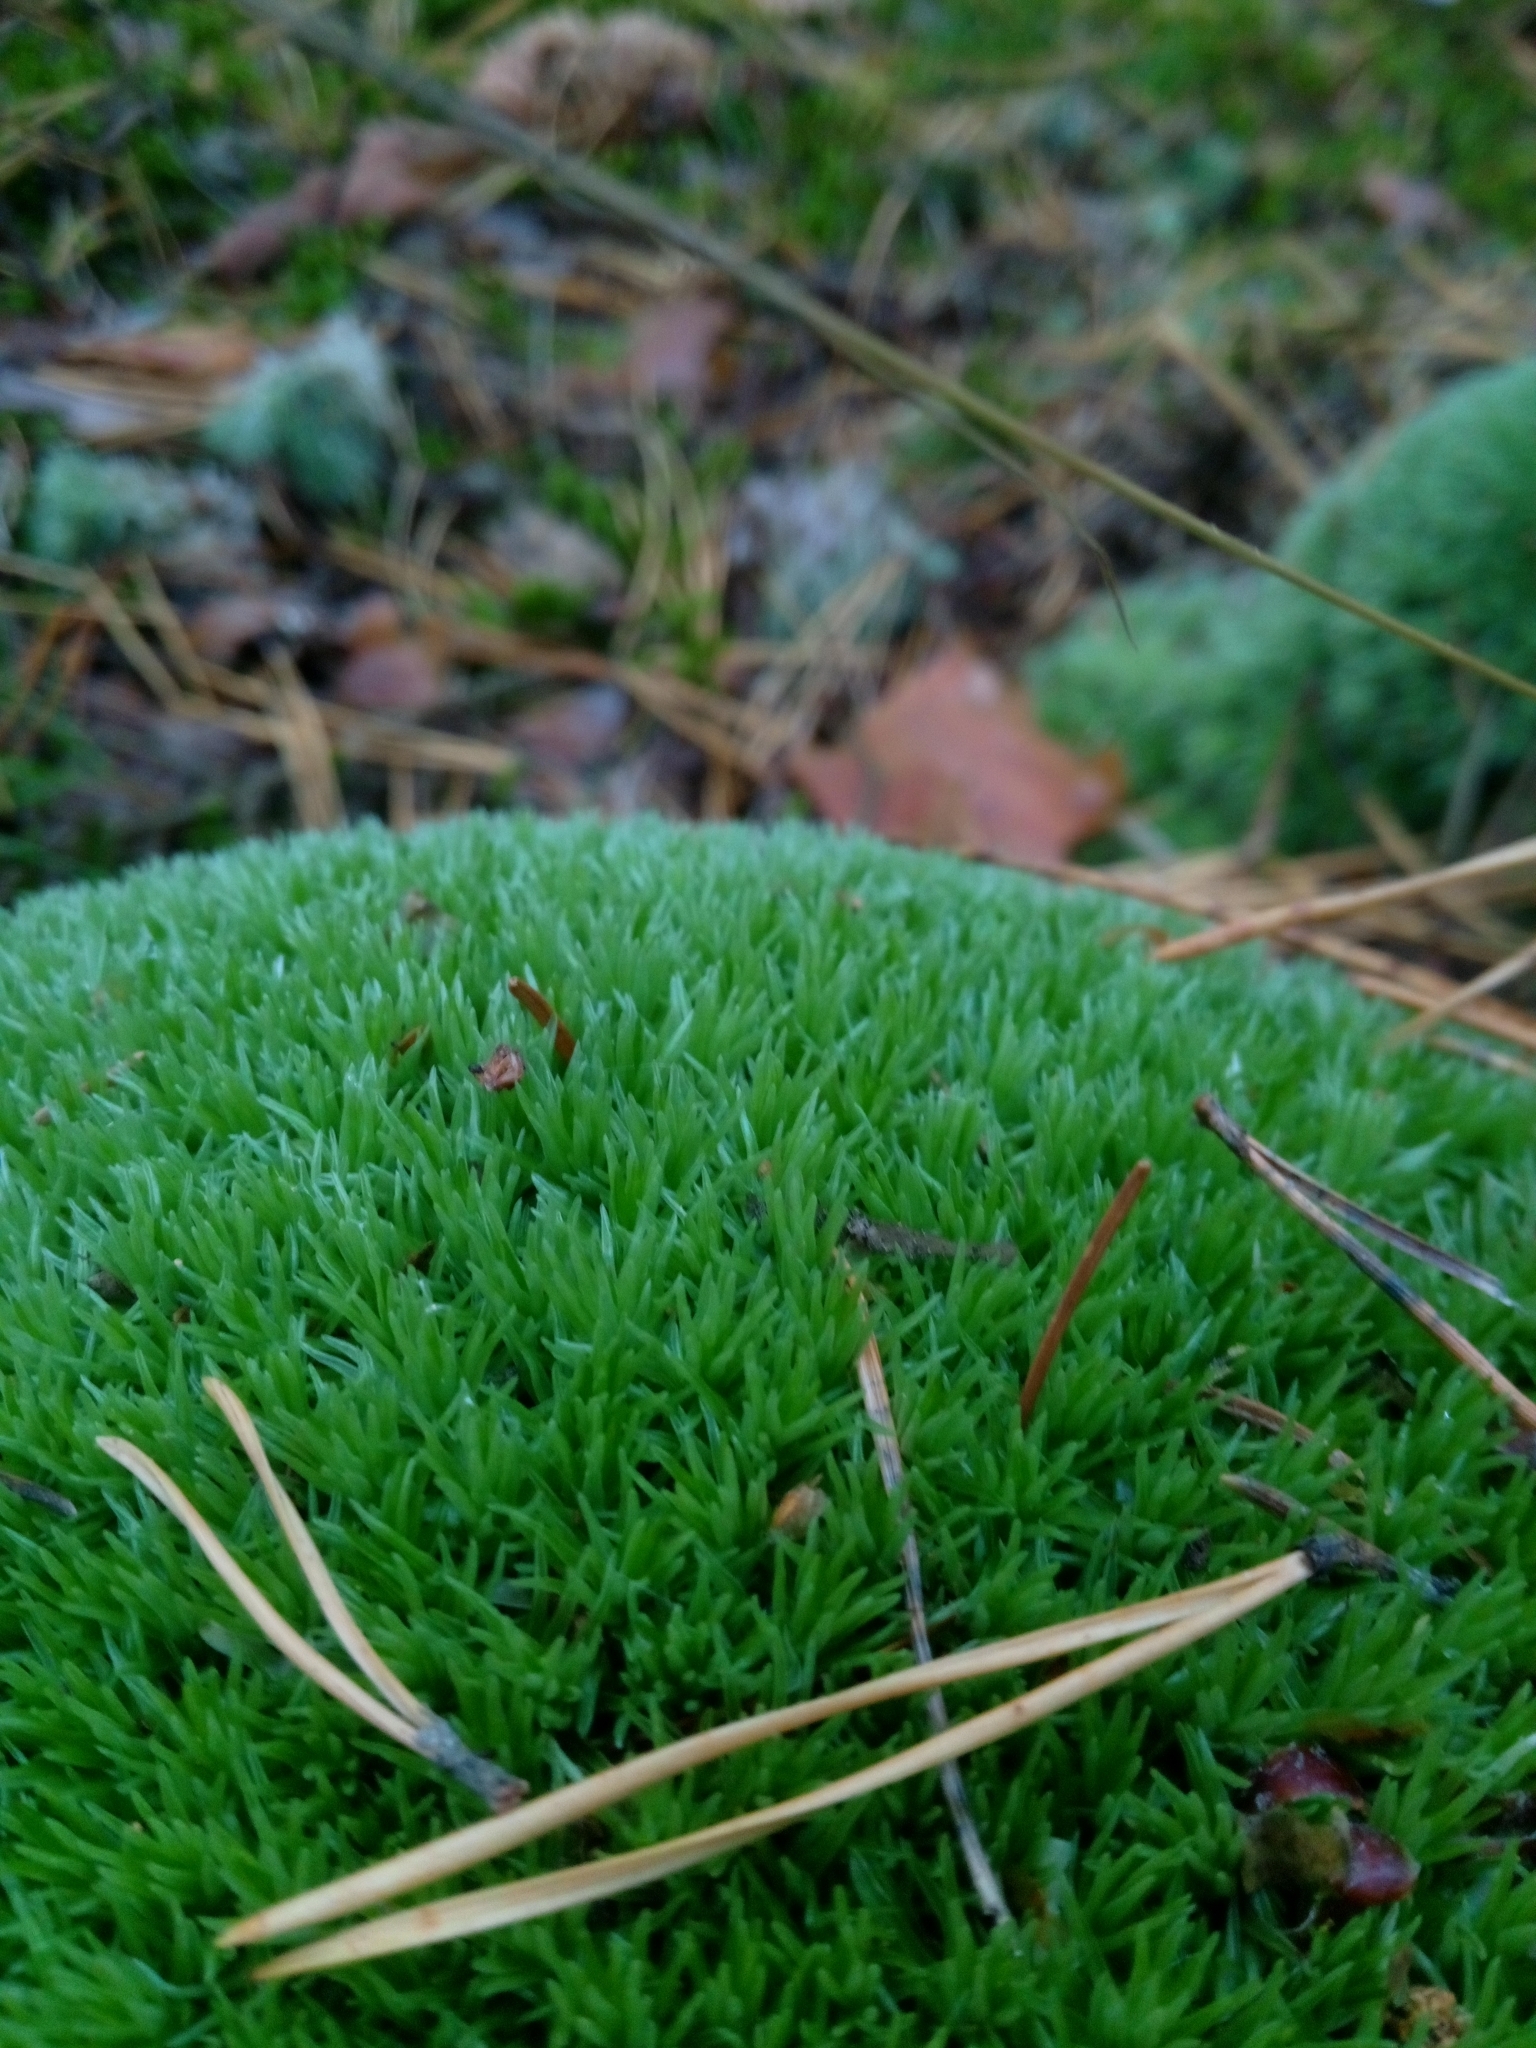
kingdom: Plantae
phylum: Bryophyta
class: Bryopsida
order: Dicranales
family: Leucobryaceae
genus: Leucobryum
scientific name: Leucobryum glaucum
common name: Large white-moss
